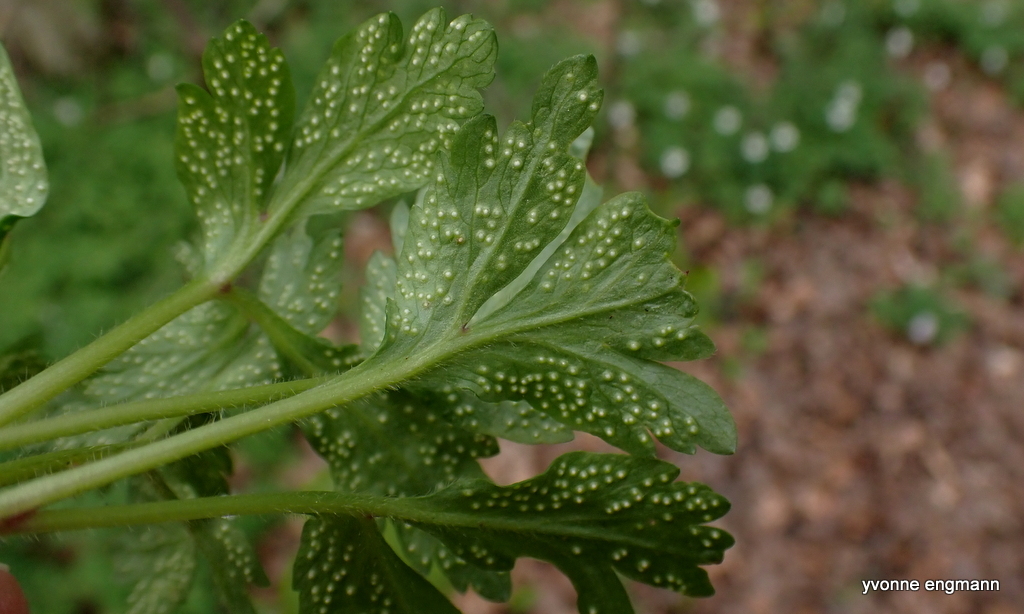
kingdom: Fungi
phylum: Basidiomycota
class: Pucciniomycetes
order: Pucciniales
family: Ochropsoraceae
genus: Ochropsora
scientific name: Ochropsora ariae
